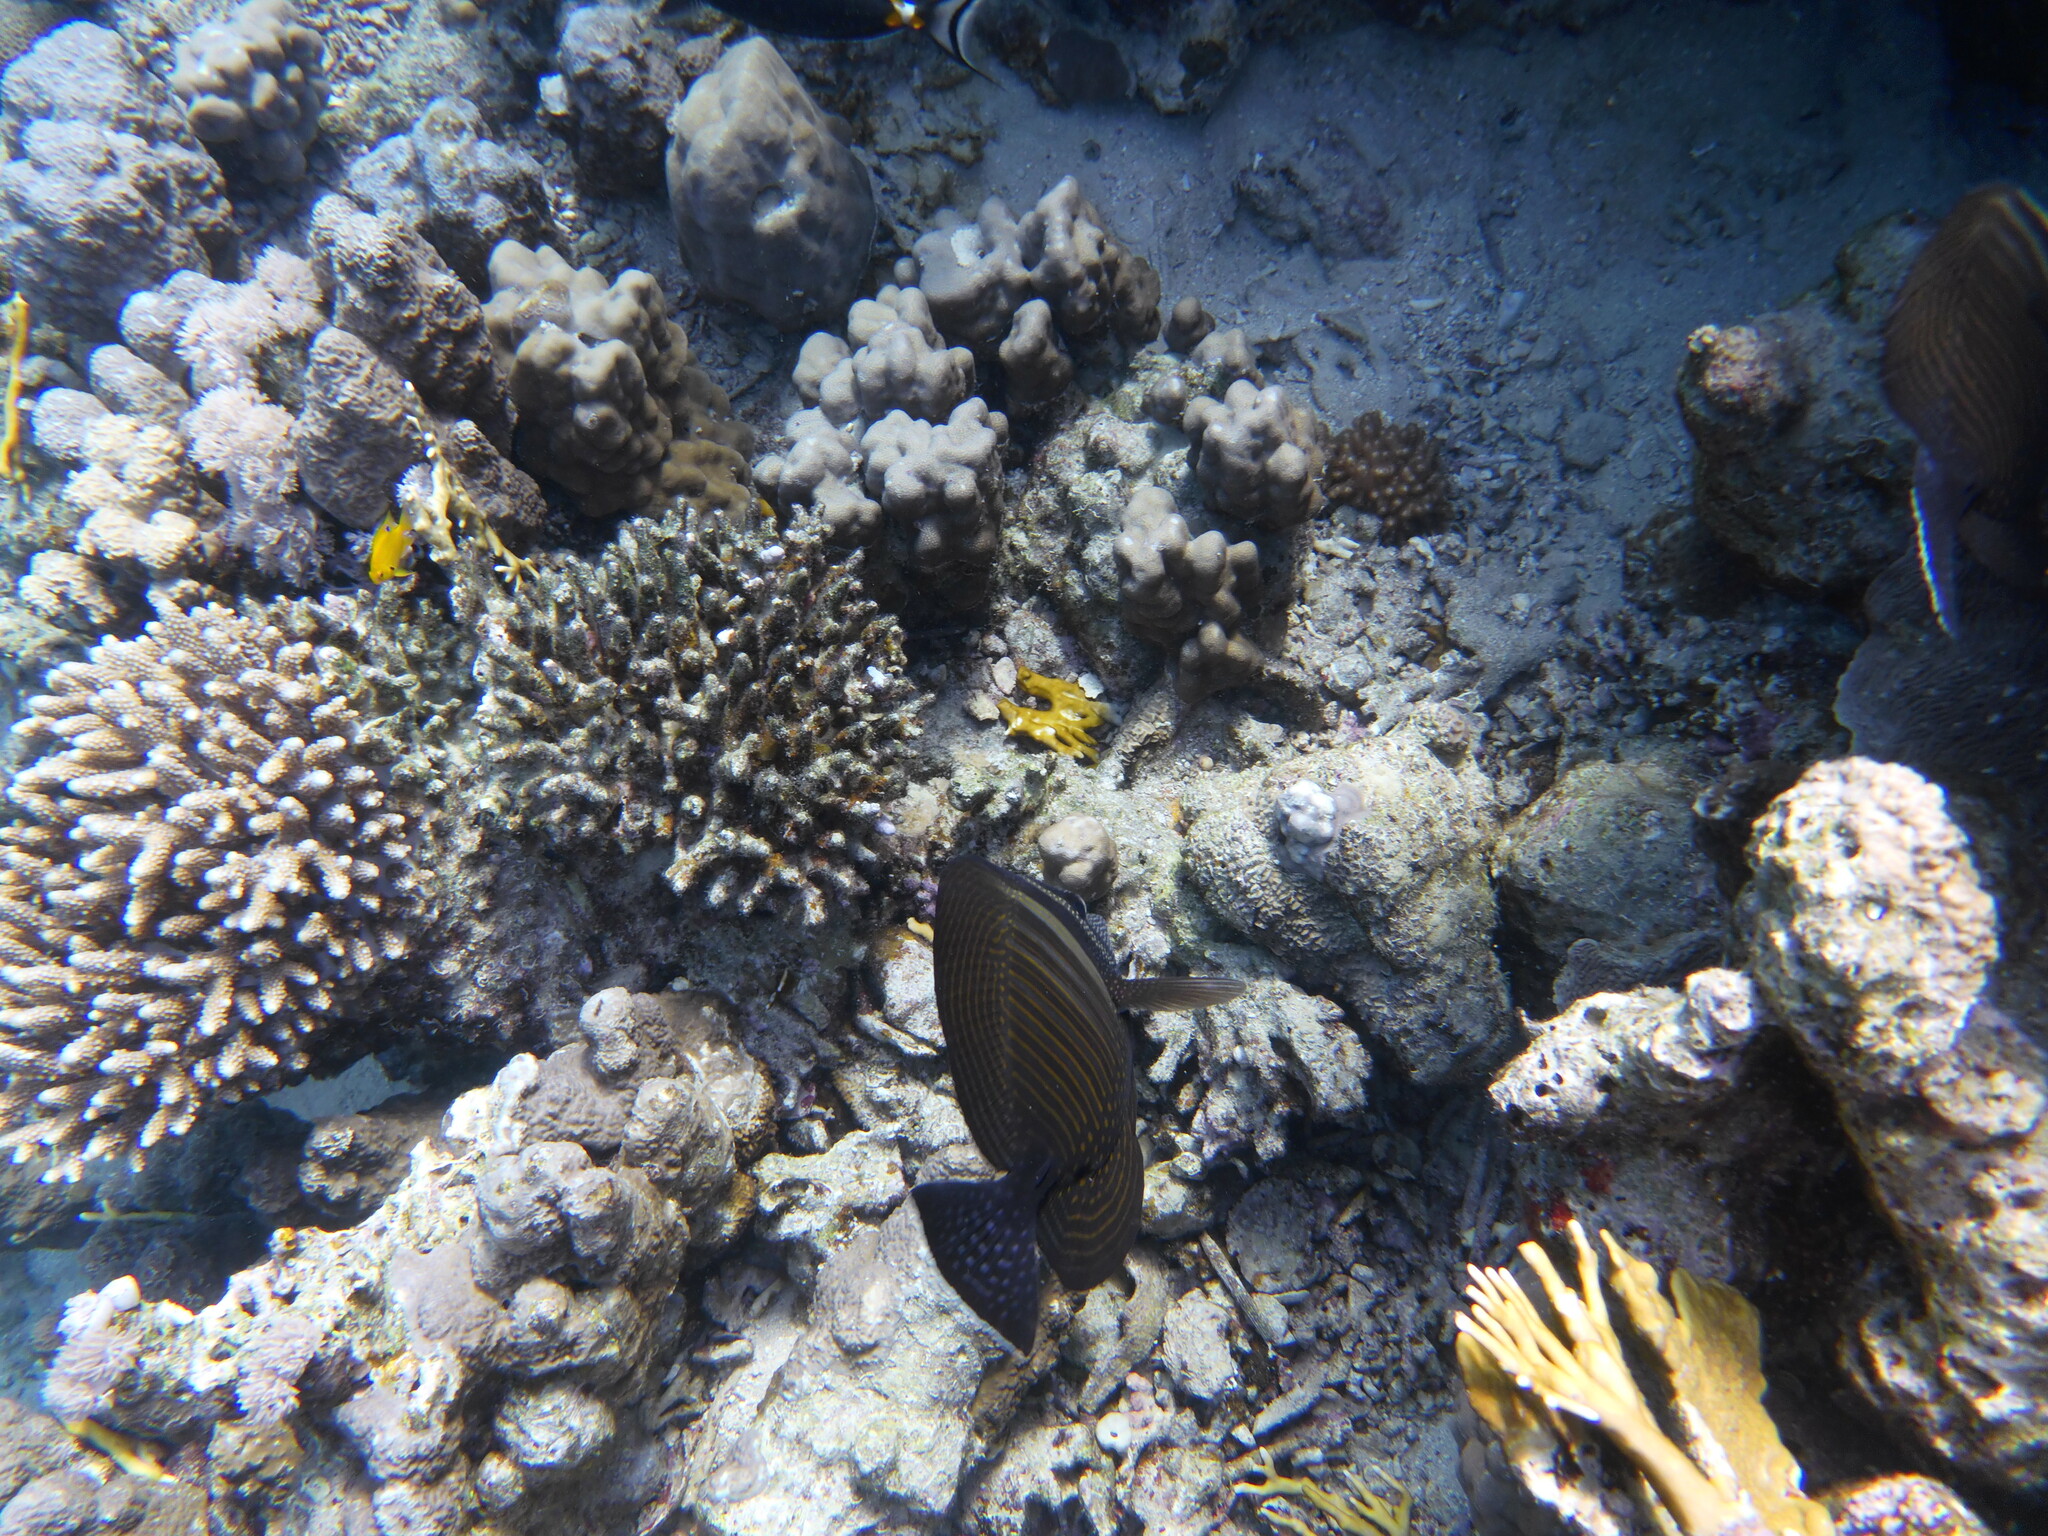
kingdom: Animalia
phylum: Chordata
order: Perciformes
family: Acanthuridae
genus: Zebrasoma
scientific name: Zebrasoma desjardinii
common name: Desjardin's sailfin tang
